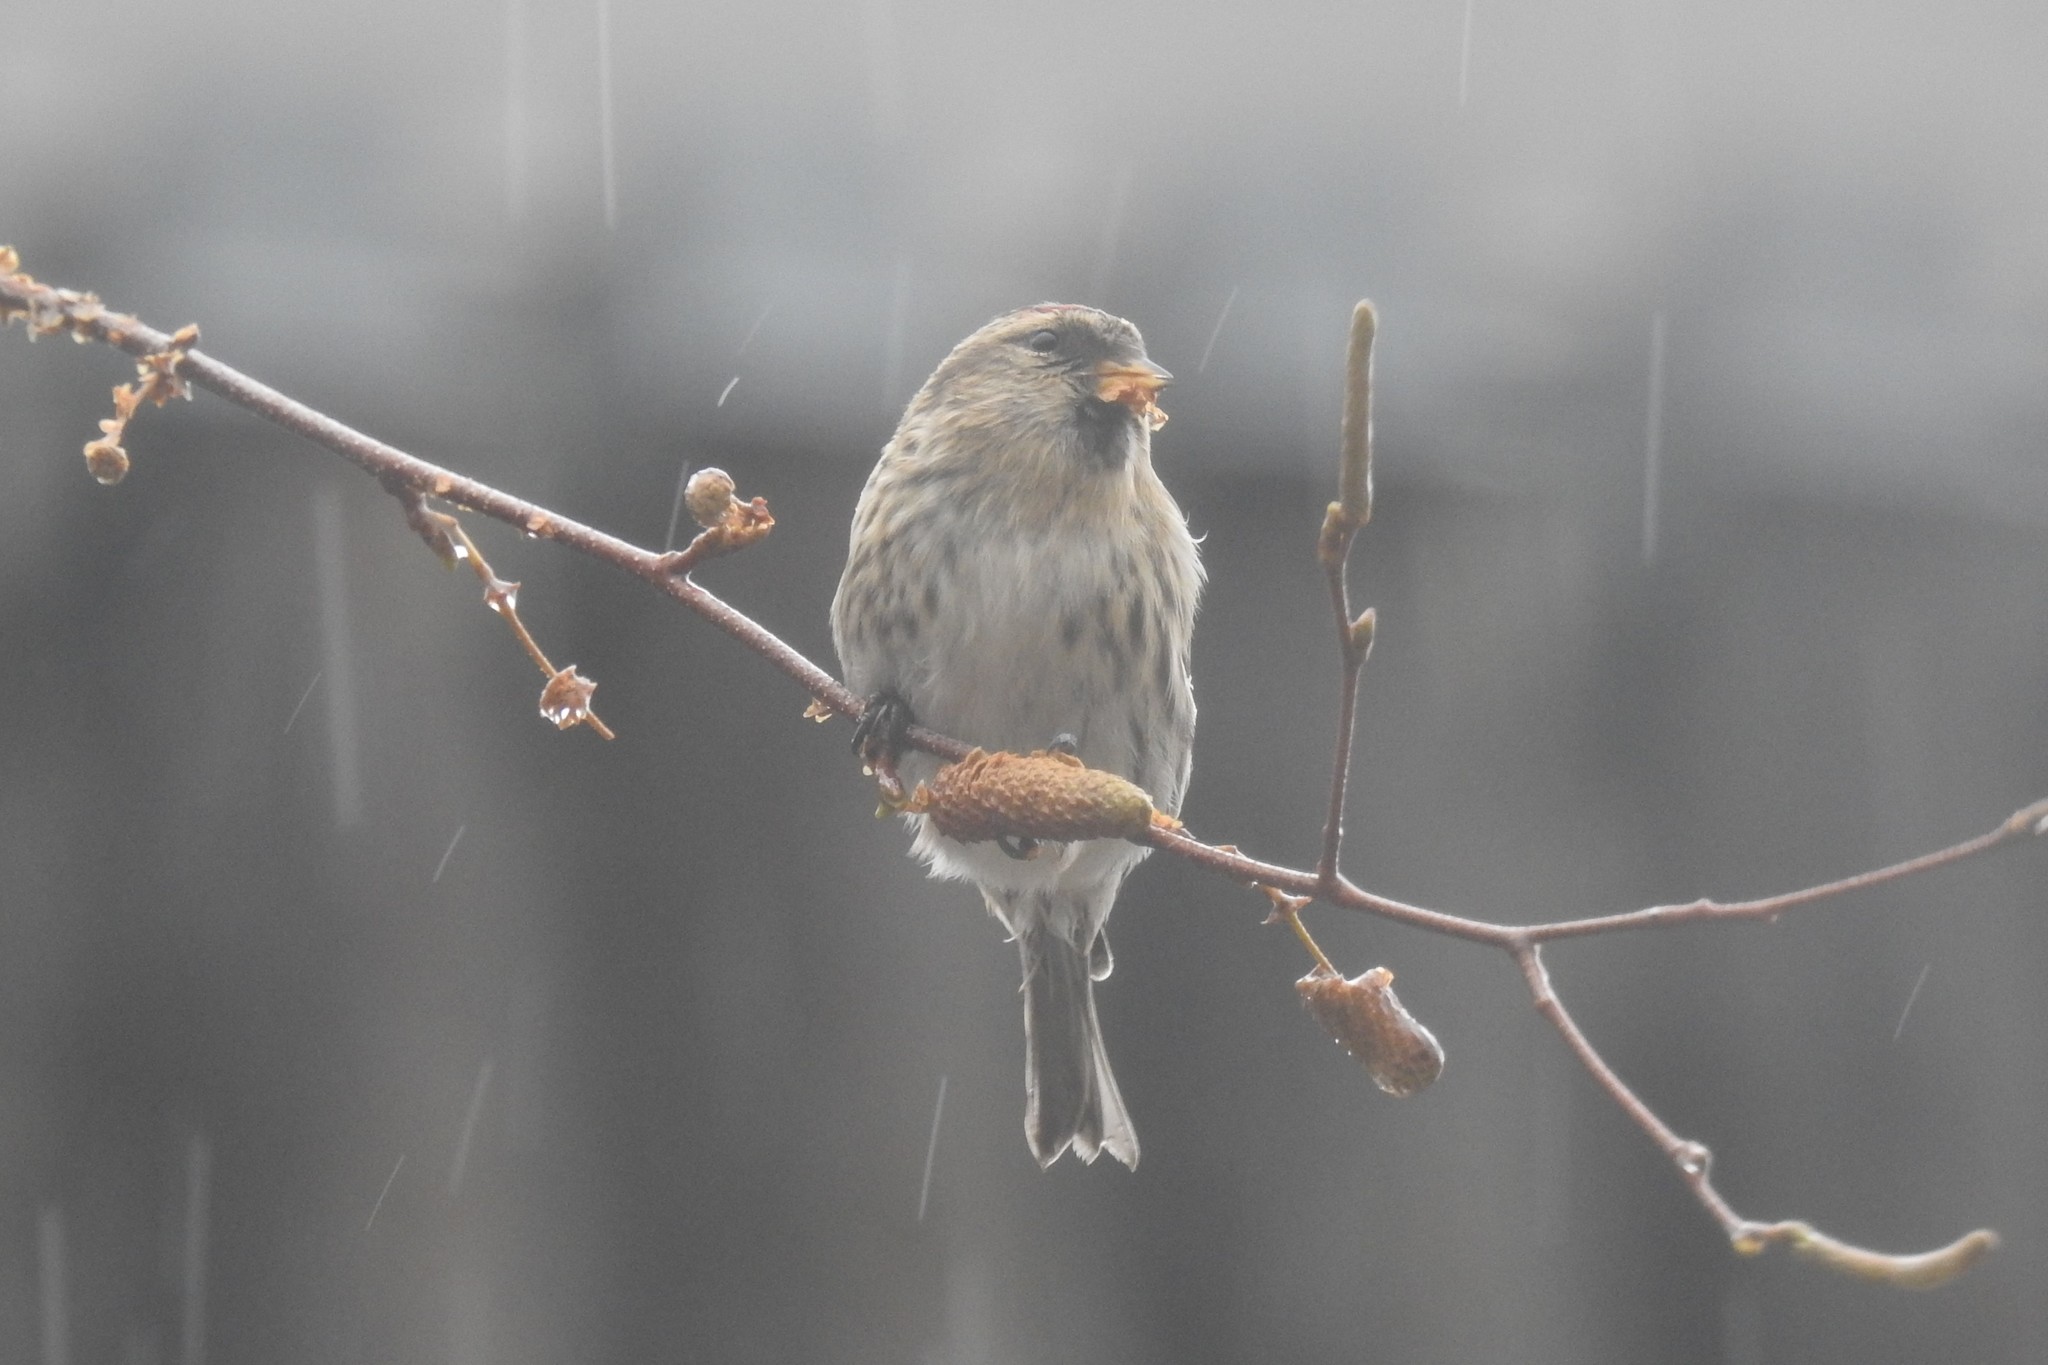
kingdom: Animalia
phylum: Chordata
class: Aves
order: Passeriformes
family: Fringillidae
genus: Acanthis
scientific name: Acanthis flammea
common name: Common redpoll
